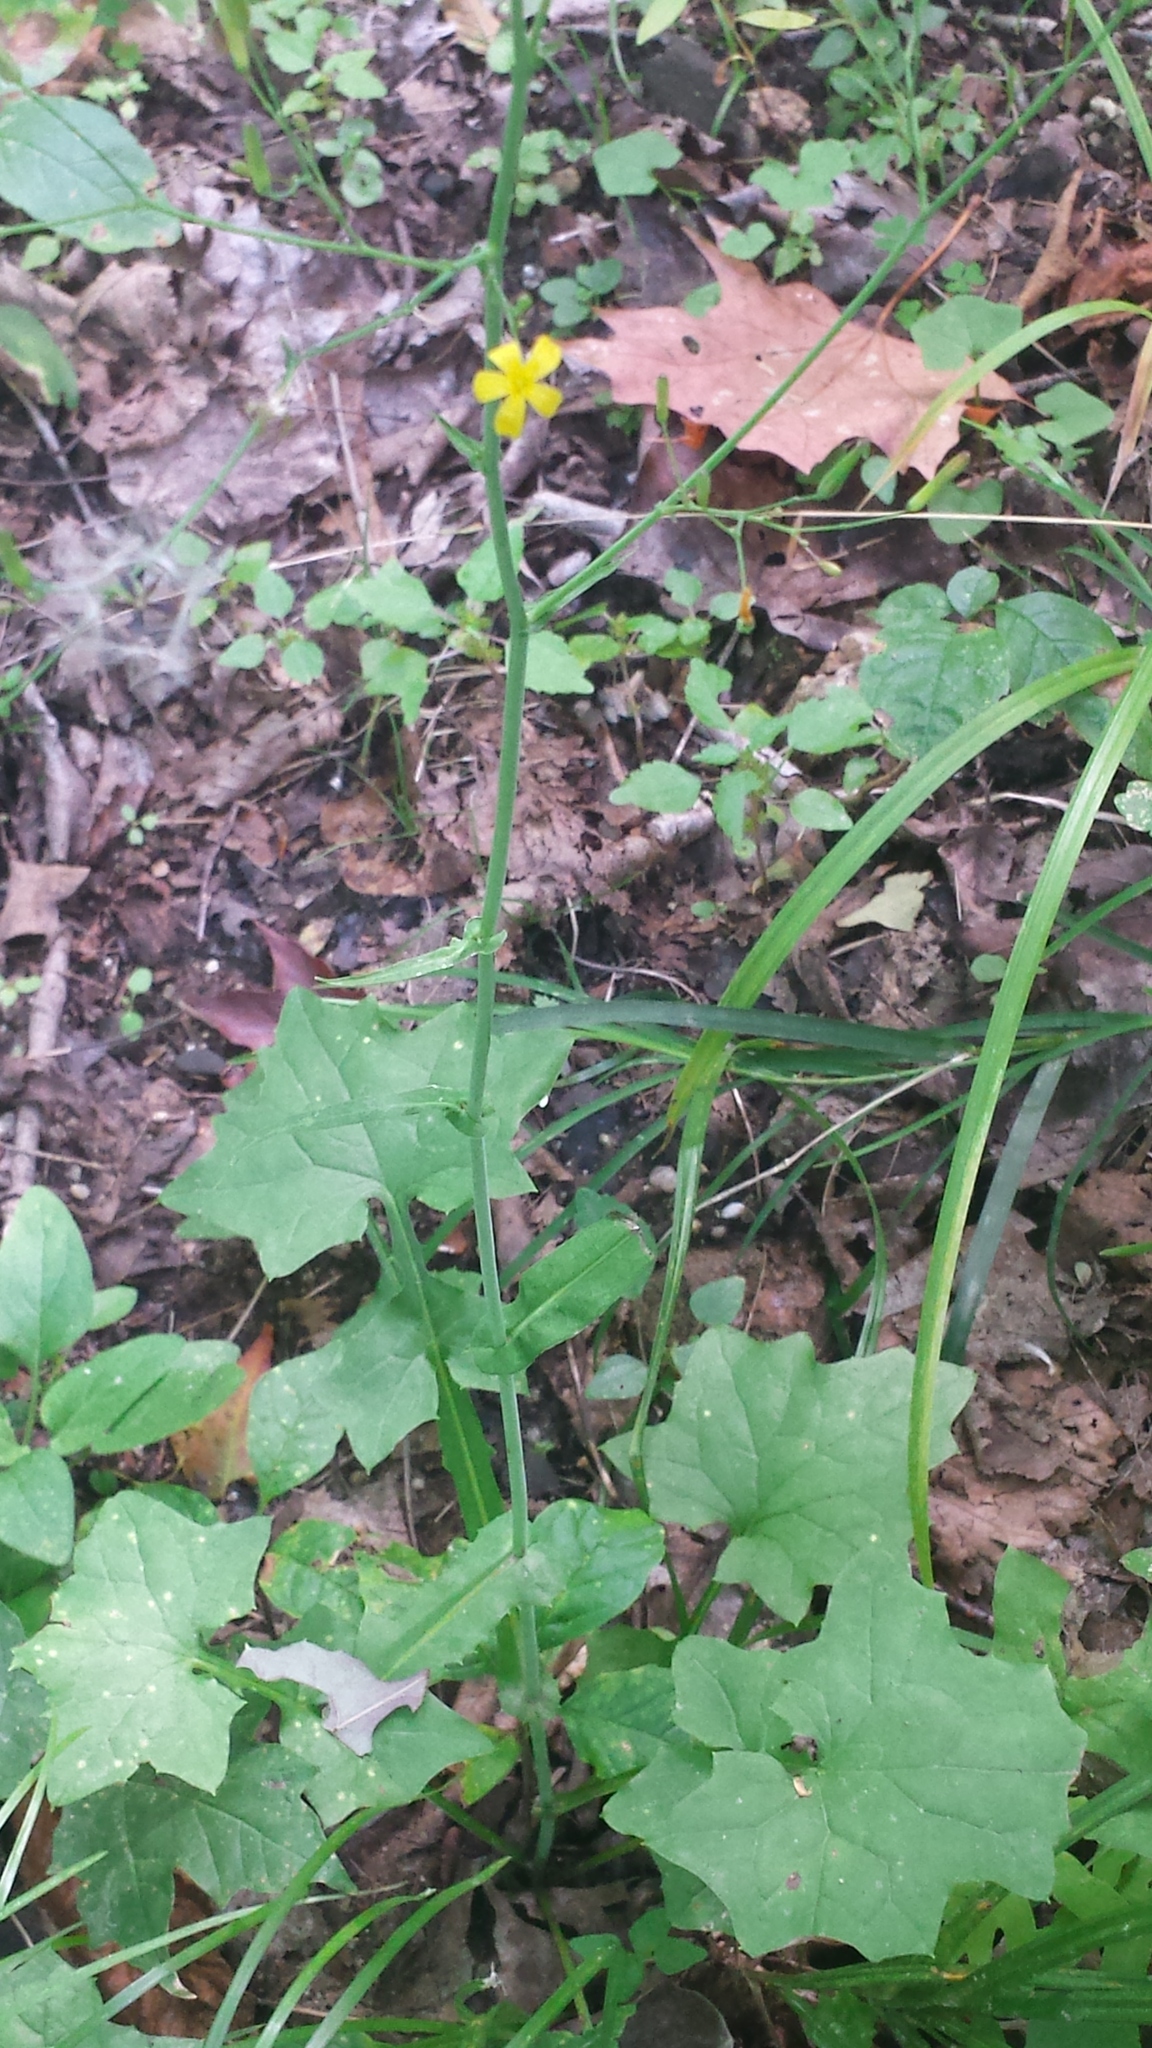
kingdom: Plantae
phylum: Tracheophyta
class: Magnoliopsida
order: Asterales
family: Asteraceae
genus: Mycelis
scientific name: Mycelis muralis
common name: Wall lettuce
